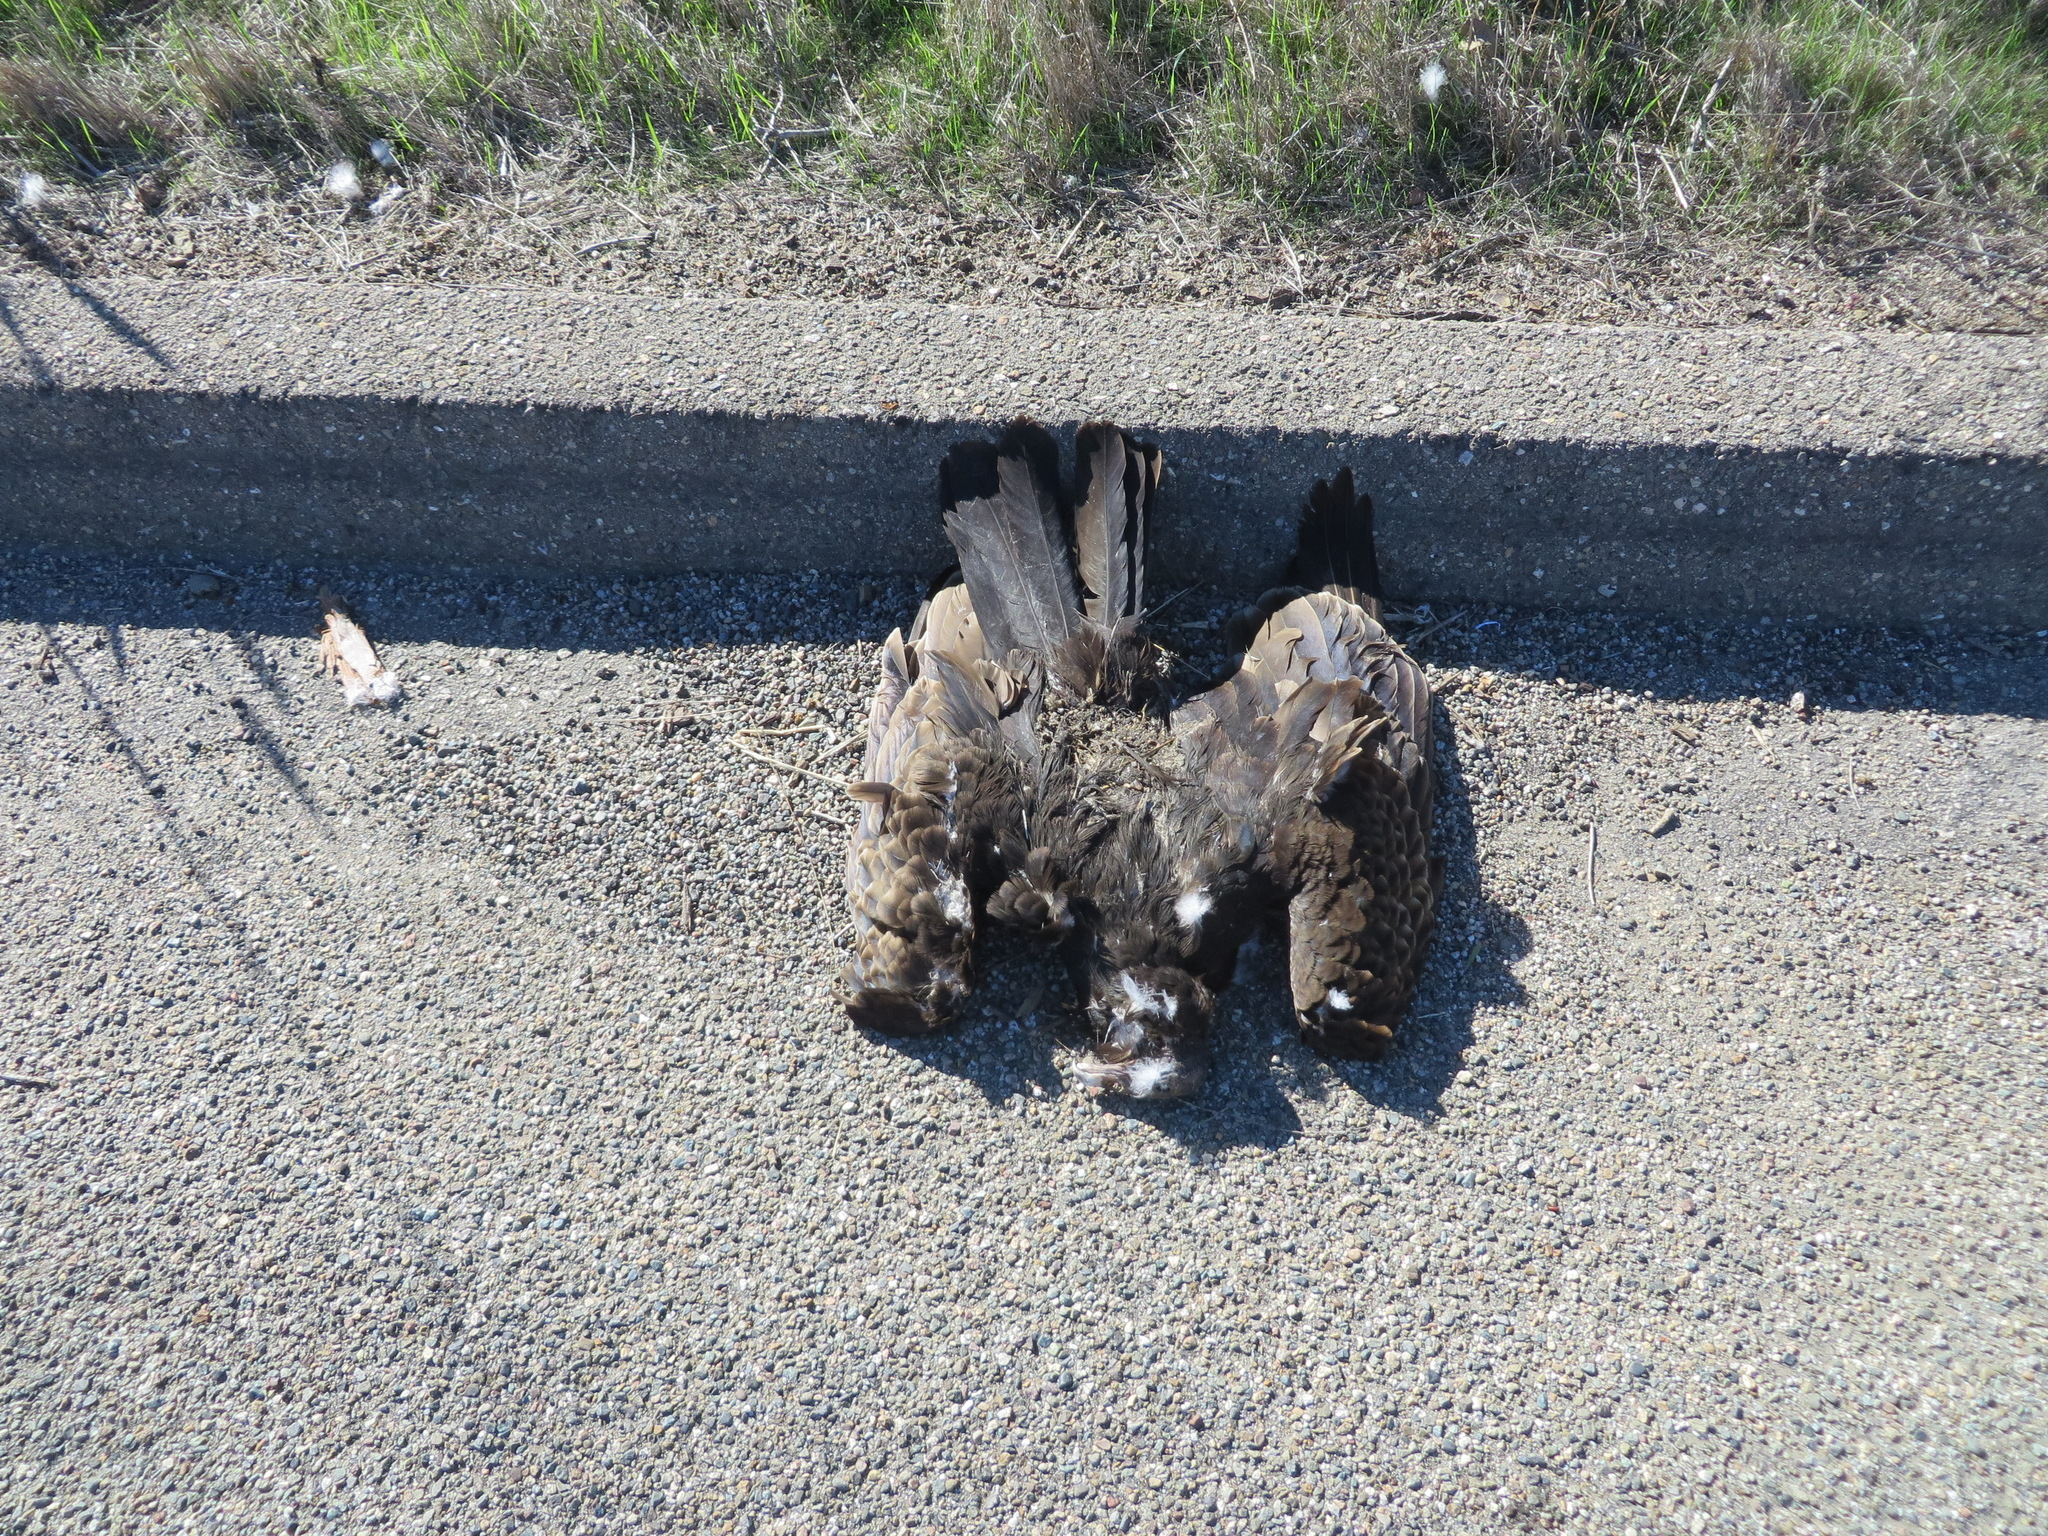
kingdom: Animalia
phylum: Chordata
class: Aves
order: Accipitriformes
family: Cathartidae
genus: Cathartes
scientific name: Cathartes aura
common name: Turkey vulture
